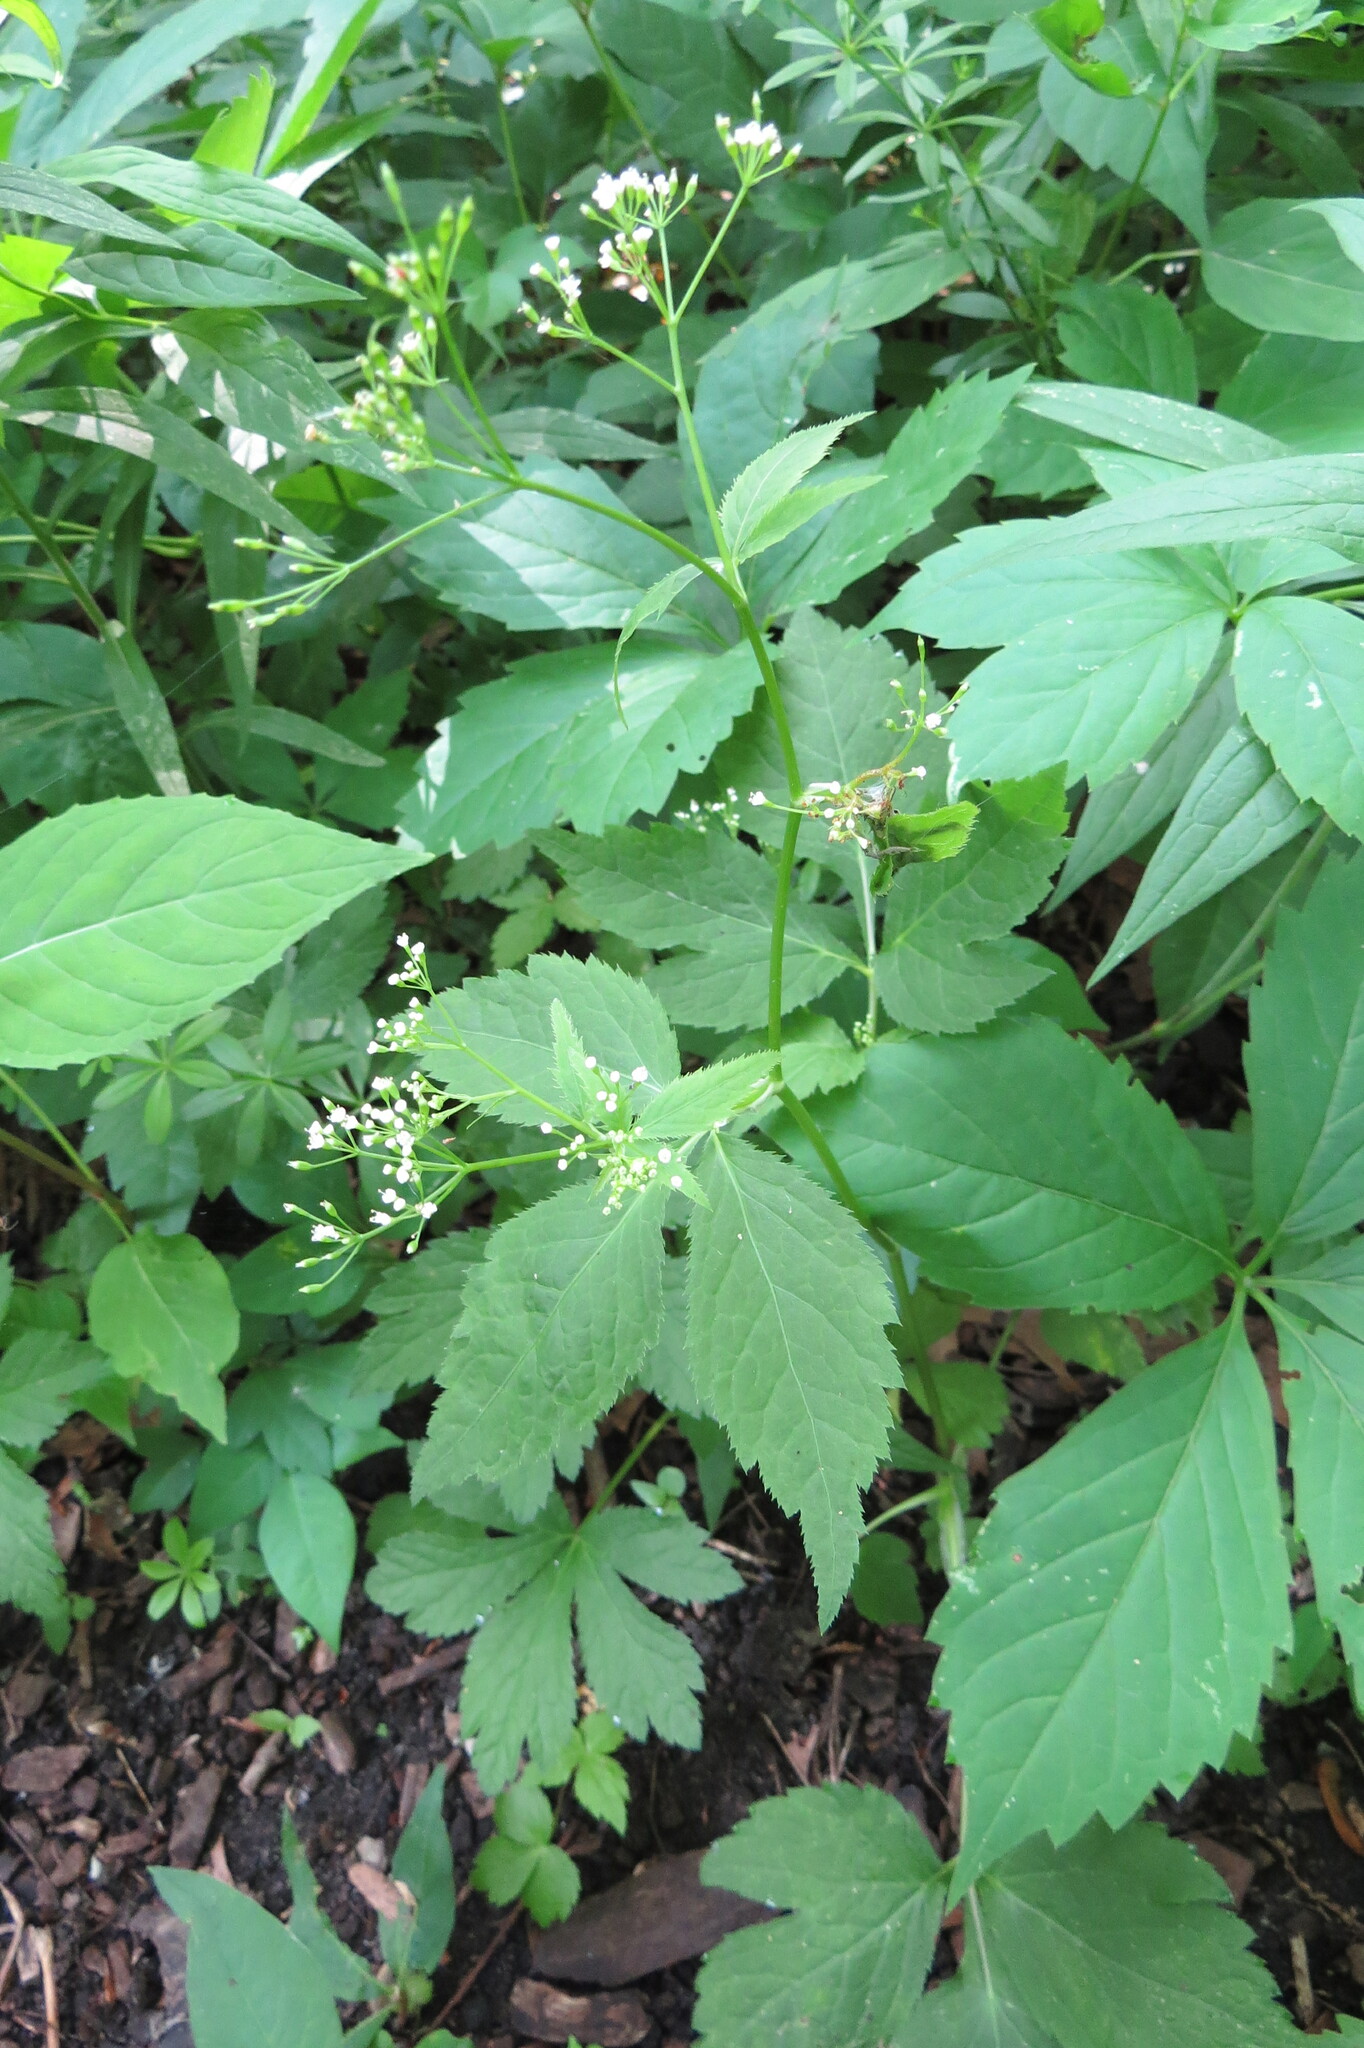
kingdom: Plantae
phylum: Tracheophyta
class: Magnoliopsida
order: Apiales
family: Apiaceae
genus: Cryptotaenia
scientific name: Cryptotaenia canadensis
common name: Honewort
